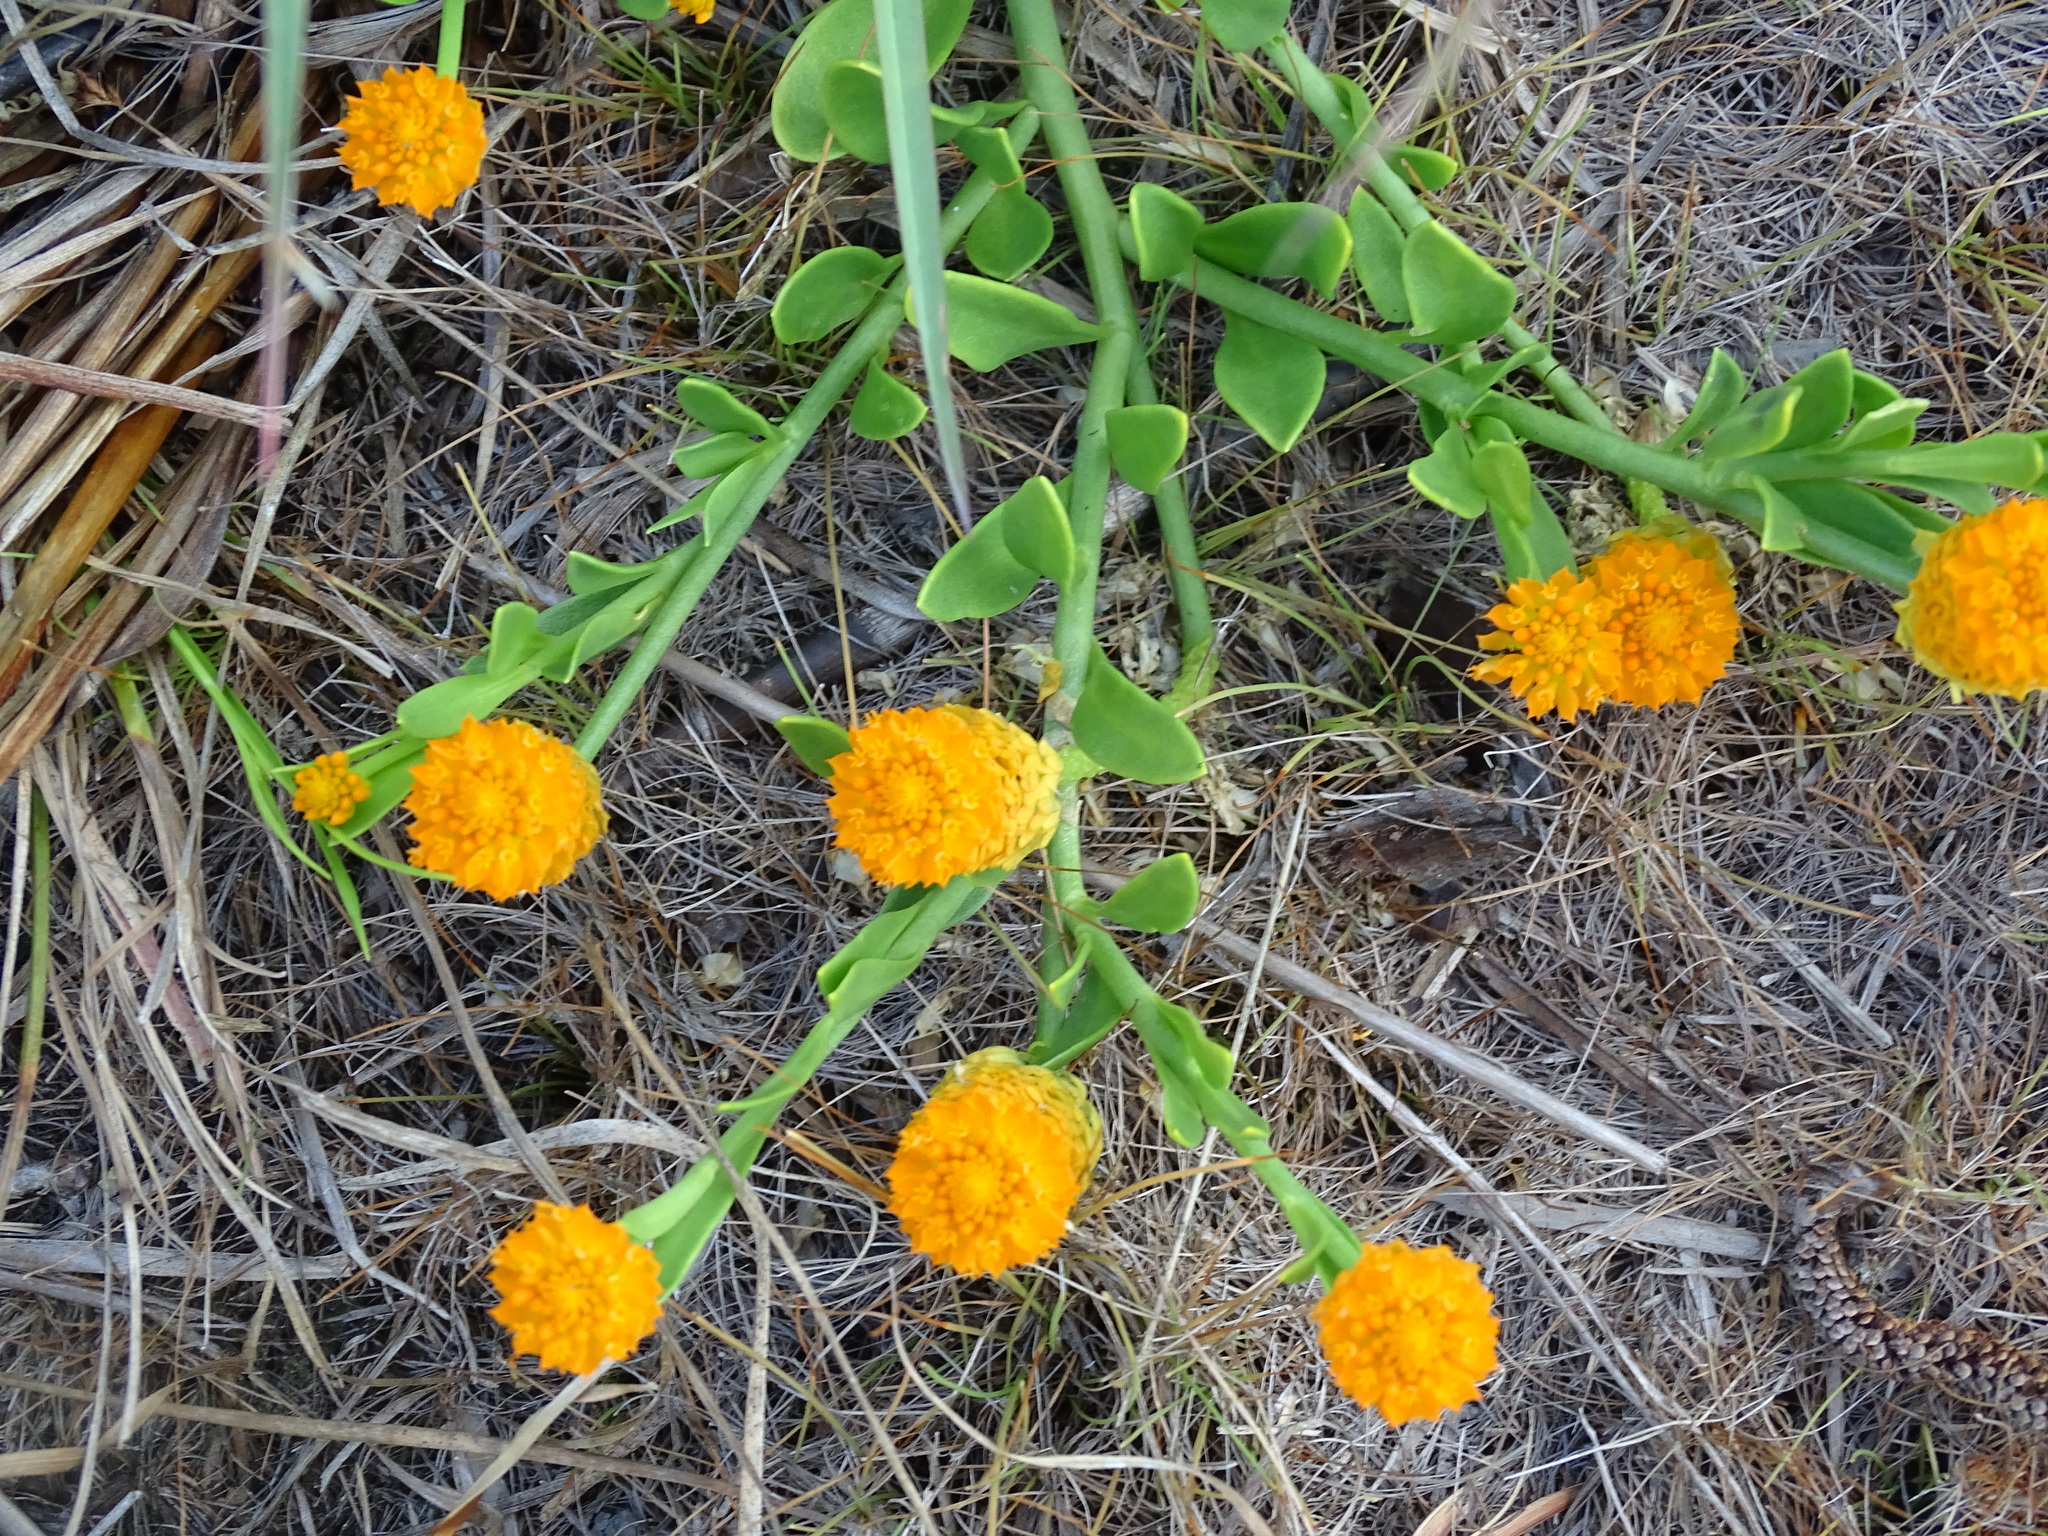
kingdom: Plantae
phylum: Tracheophyta
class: Magnoliopsida
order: Fabales
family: Polygalaceae
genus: Polygala
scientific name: Polygala lutea
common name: Orange milkwort
